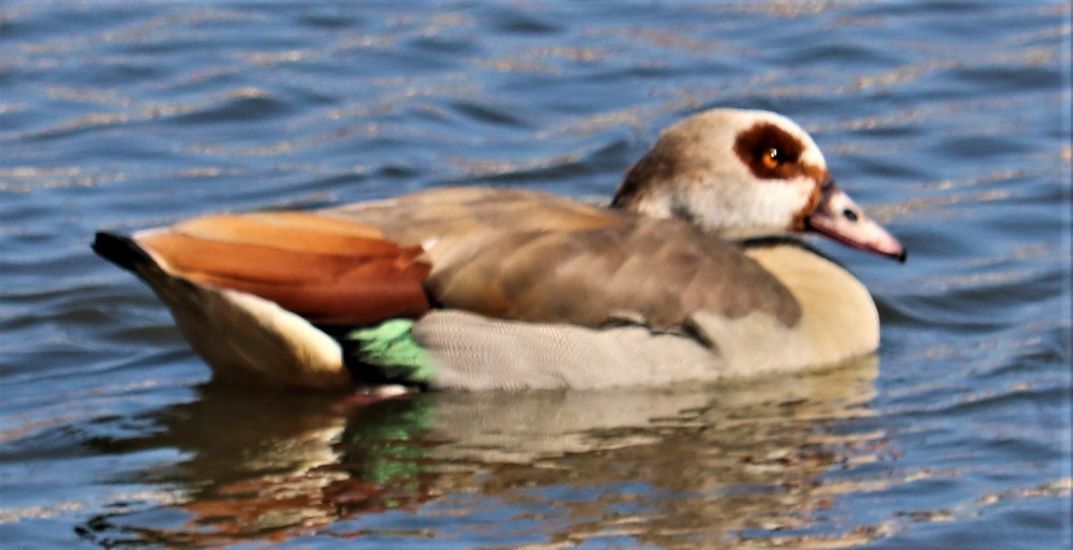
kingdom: Animalia
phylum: Chordata
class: Aves
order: Anseriformes
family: Anatidae
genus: Alopochen
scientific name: Alopochen aegyptiaca
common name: Egyptian goose
